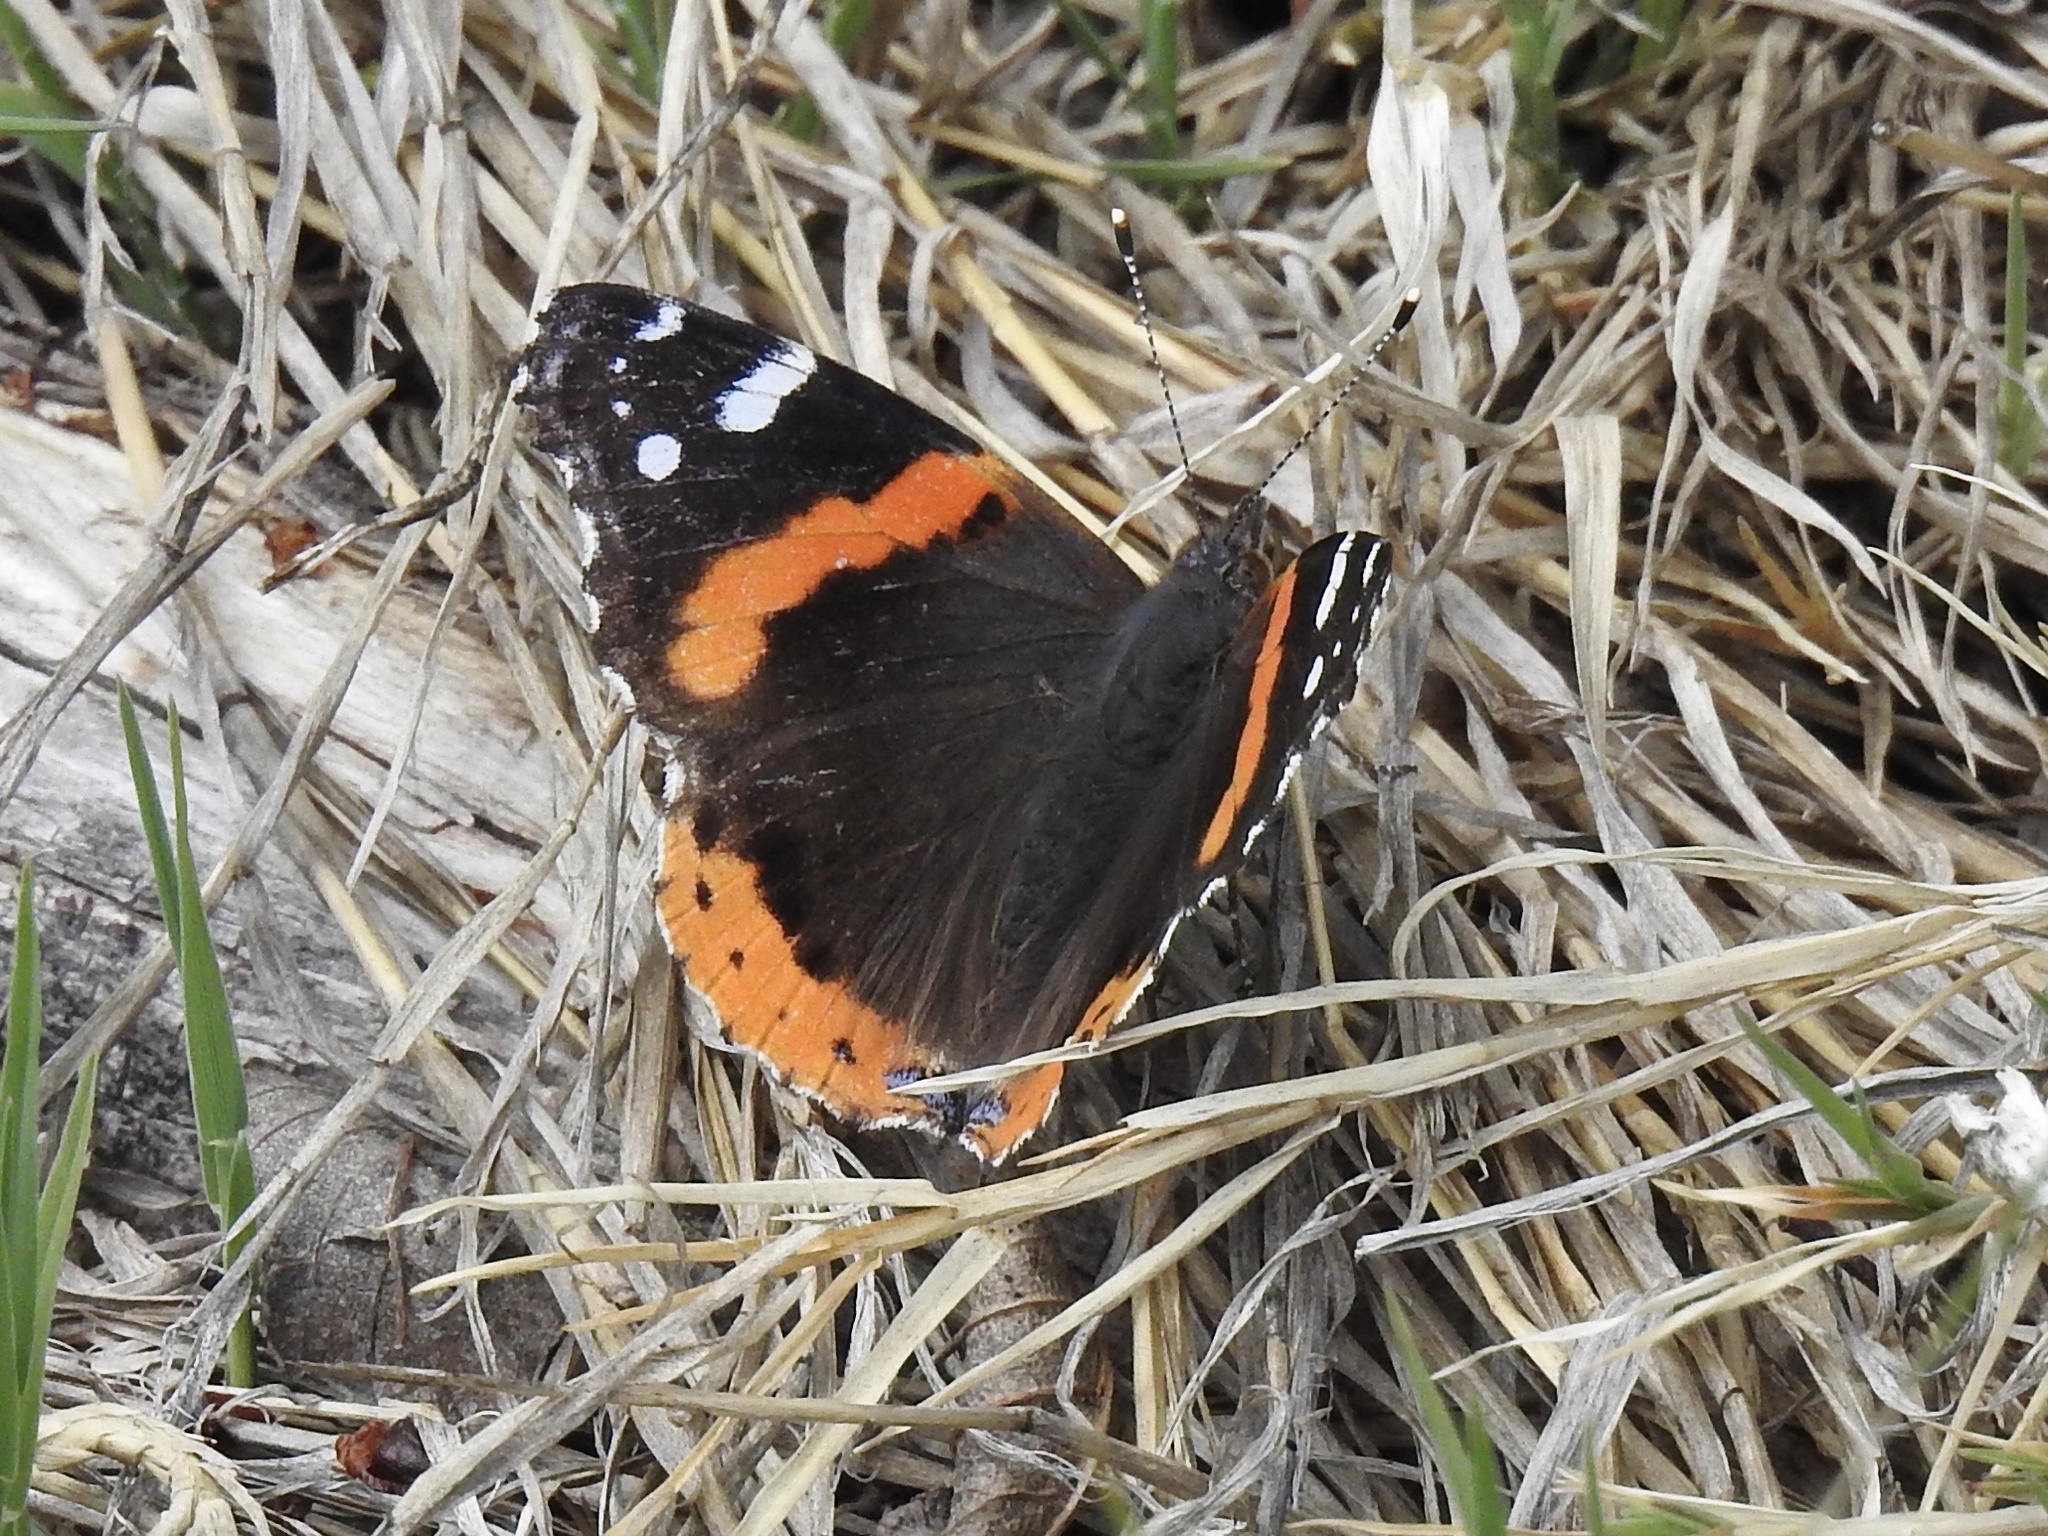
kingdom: Animalia
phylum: Arthropoda
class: Insecta
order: Lepidoptera
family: Nymphalidae
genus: Vanessa
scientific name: Vanessa atalanta
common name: Red admiral
